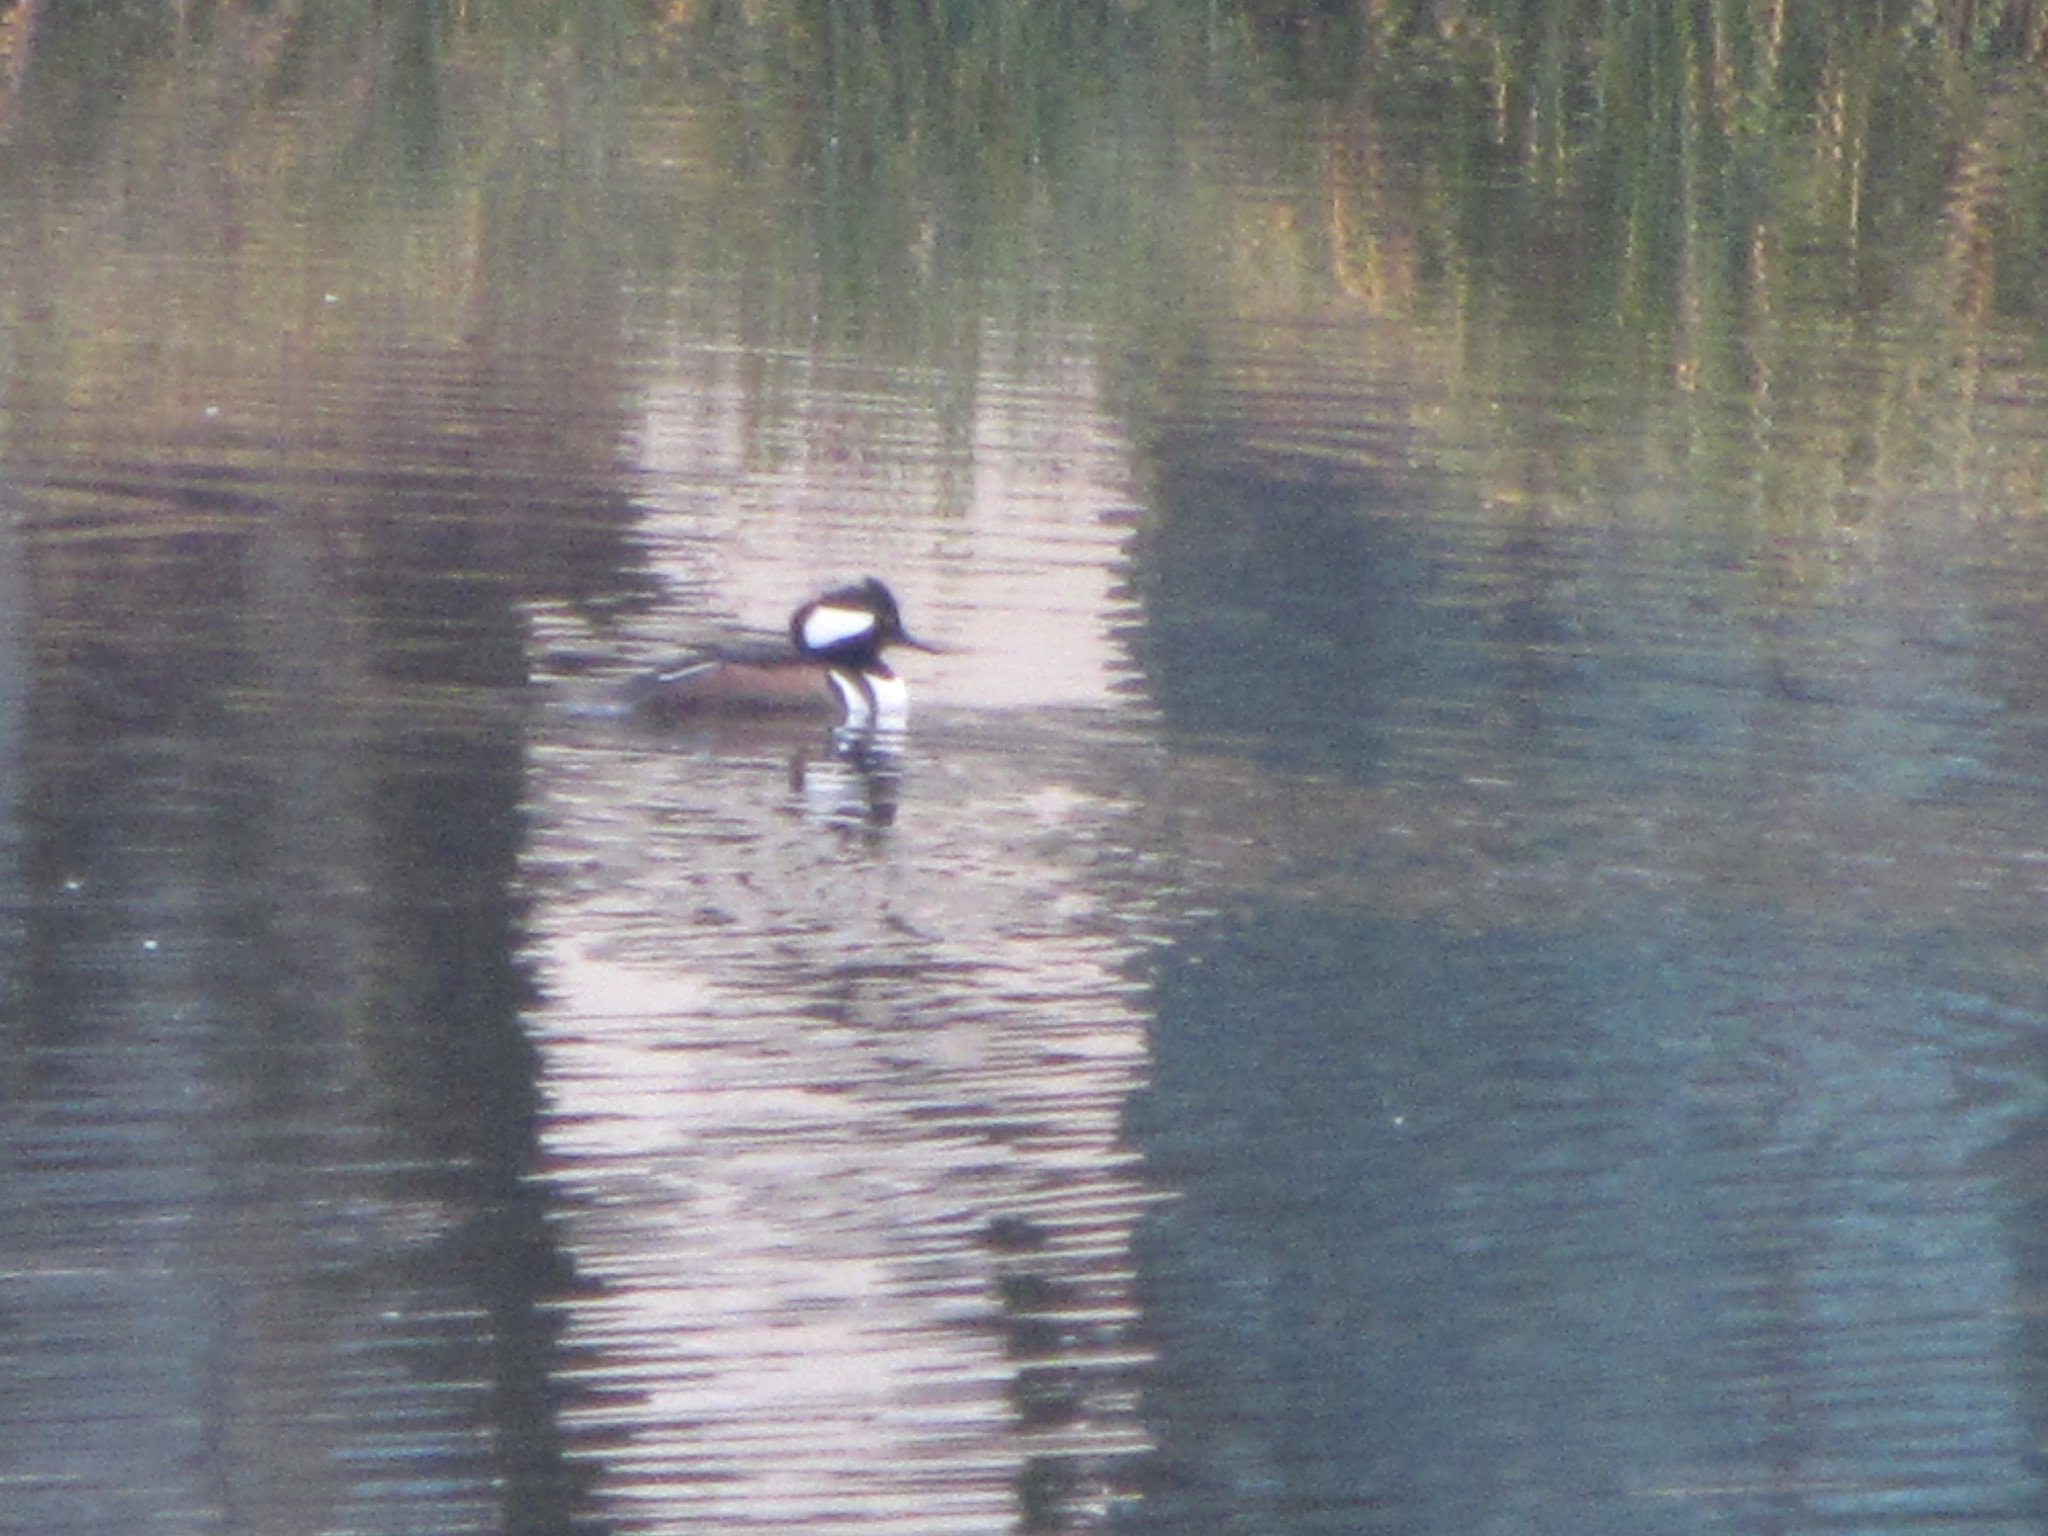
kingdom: Animalia
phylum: Chordata
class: Aves
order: Anseriformes
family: Anatidae
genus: Lophodytes
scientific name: Lophodytes cucullatus
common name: Hooded merganser
